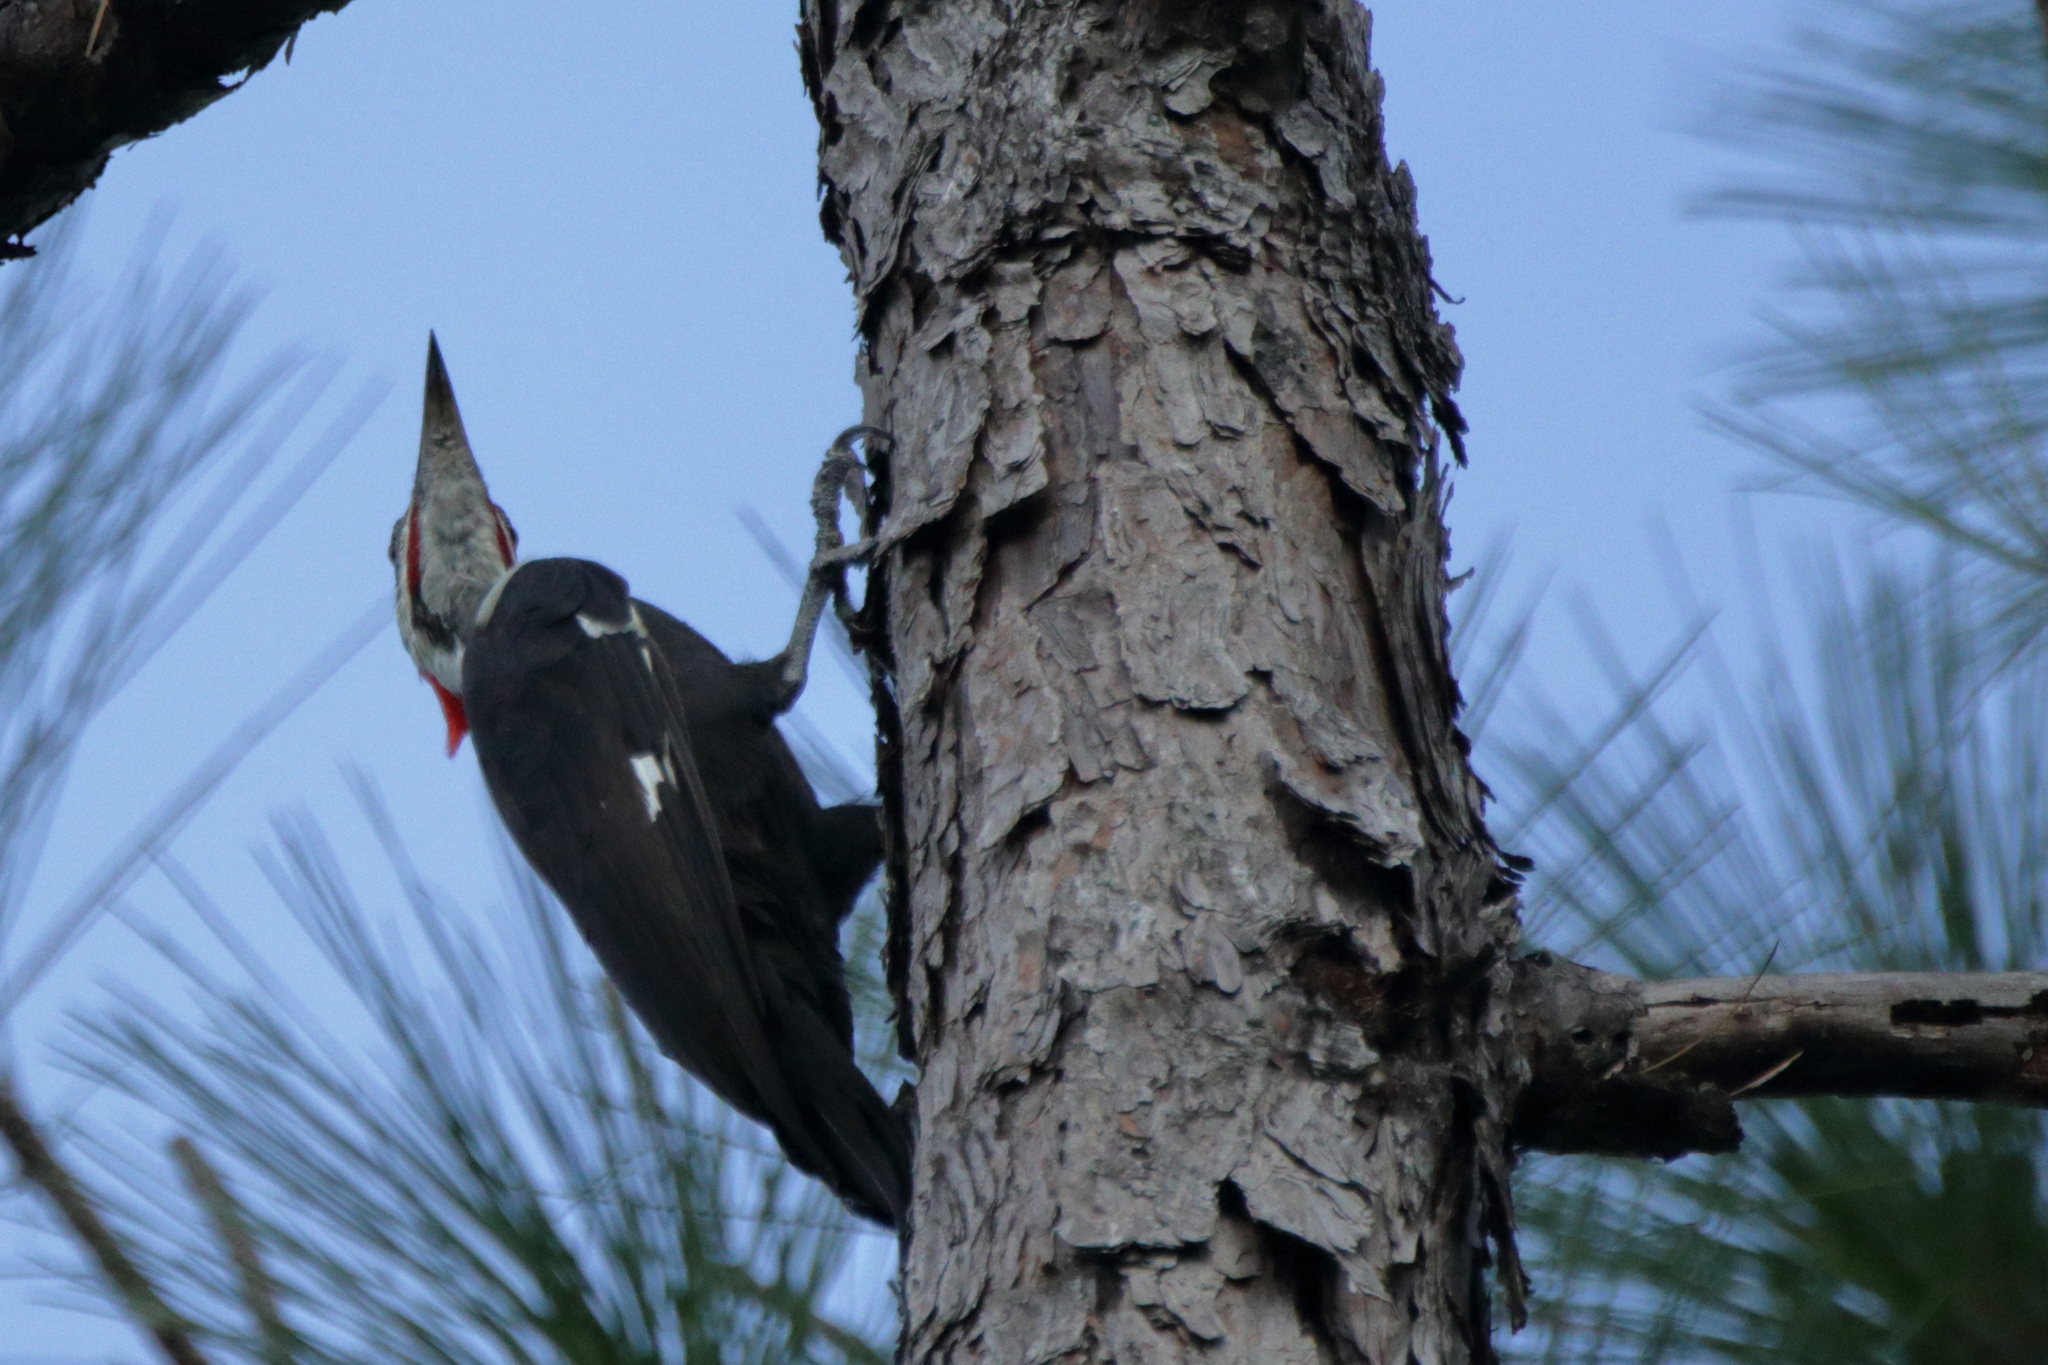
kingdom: Animalia
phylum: Chordata
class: Aves
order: Piciformes
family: Picidae
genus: Dryocopus
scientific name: Dryocopus pileatus
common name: Pileated woodpecker
